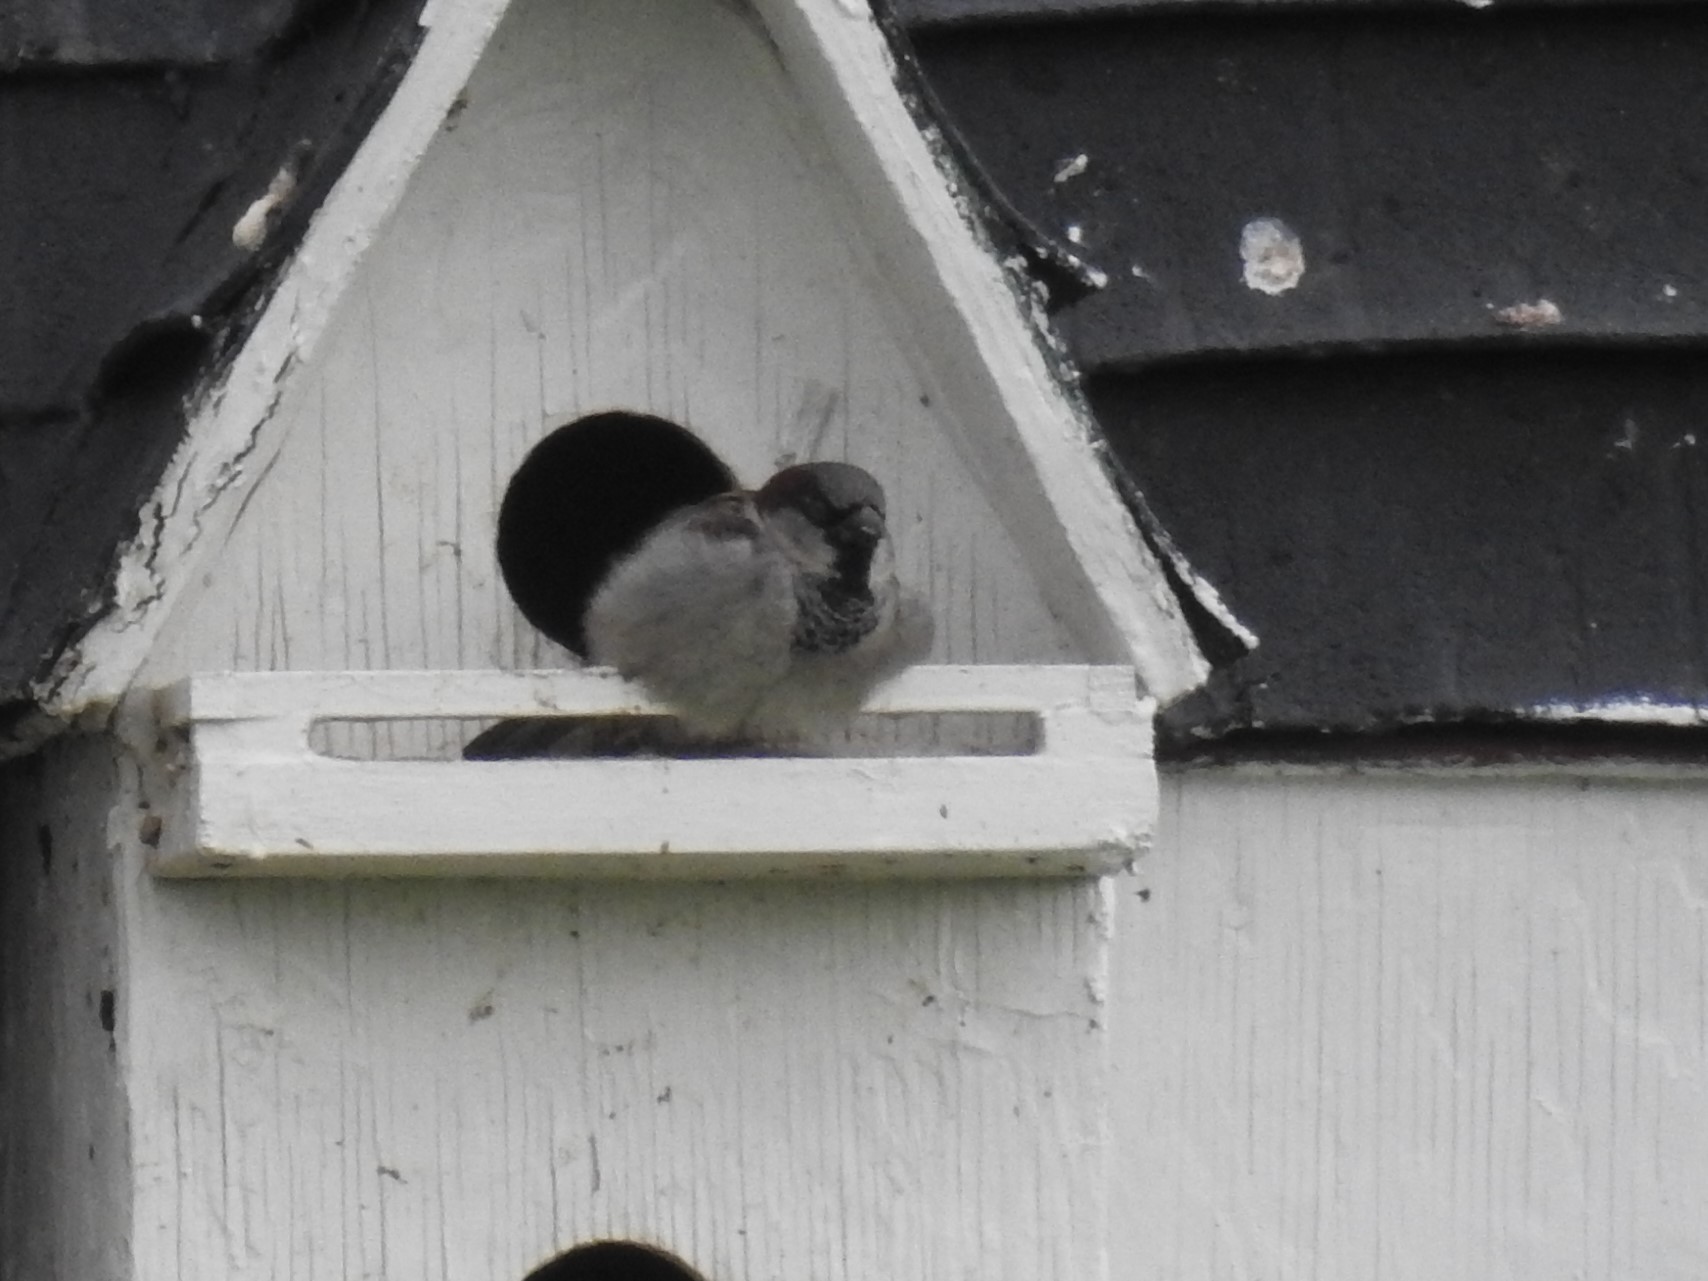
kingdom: Animalia
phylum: Chordata
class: Aves
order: Passeriformes
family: Passeridae
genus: Passer
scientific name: Passer domesticus
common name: House sparrow
